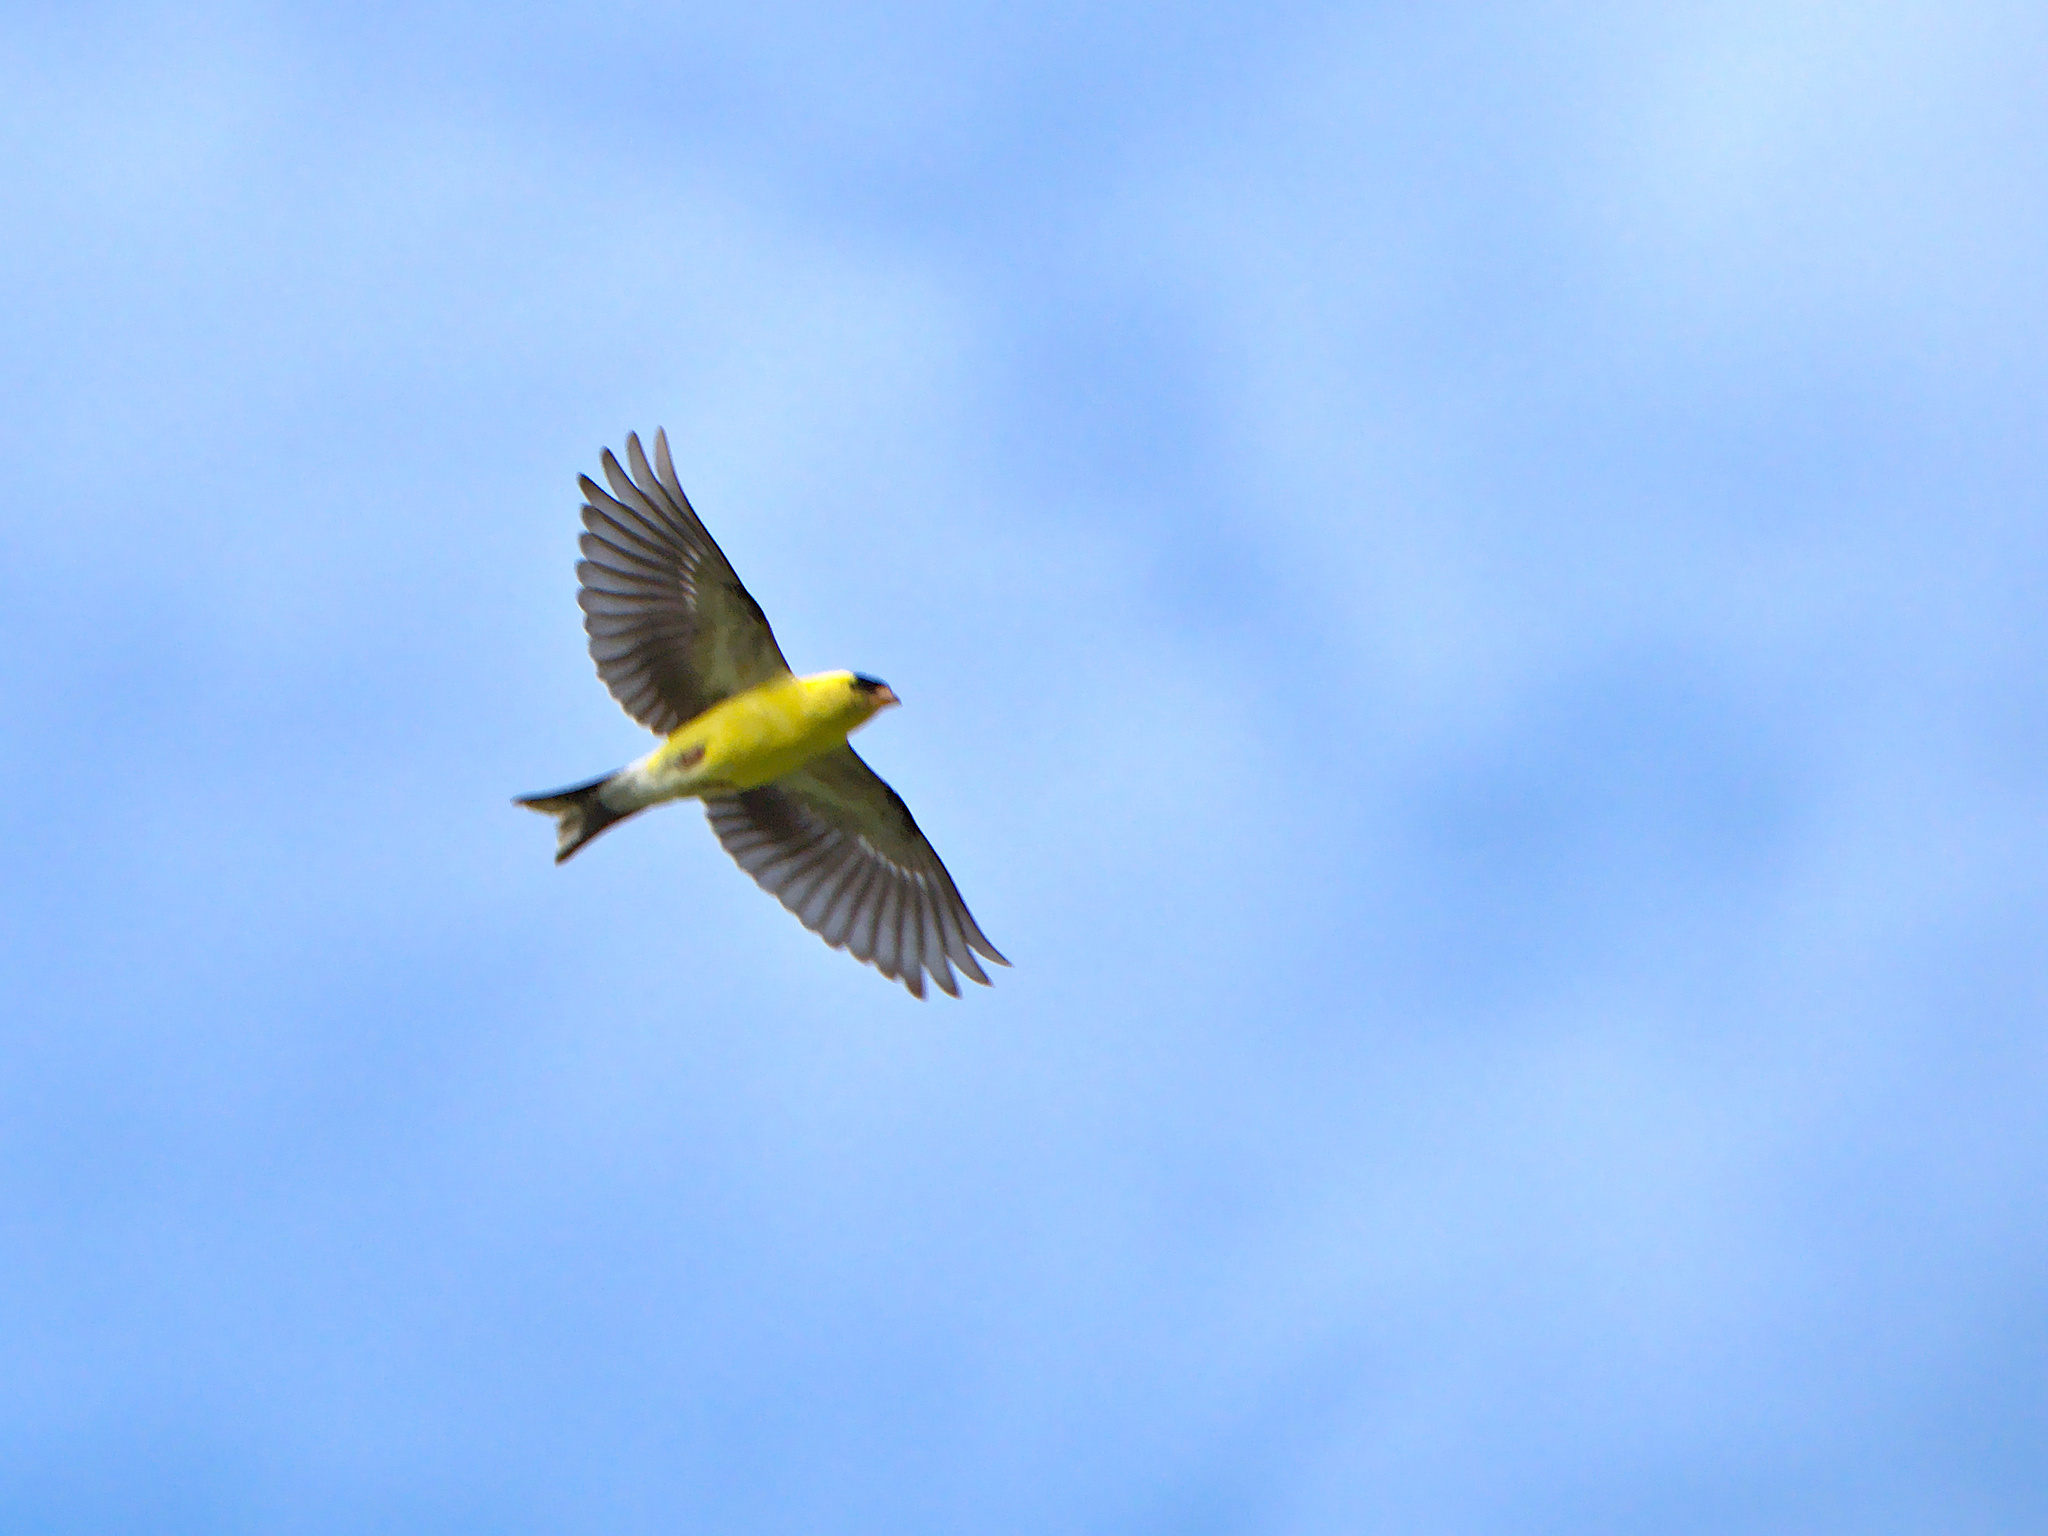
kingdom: Animalia
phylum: Chordata
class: Aves
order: Passeriformes
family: Fringillidae
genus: Spinus
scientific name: Spinus tristis
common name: American goldfinch
